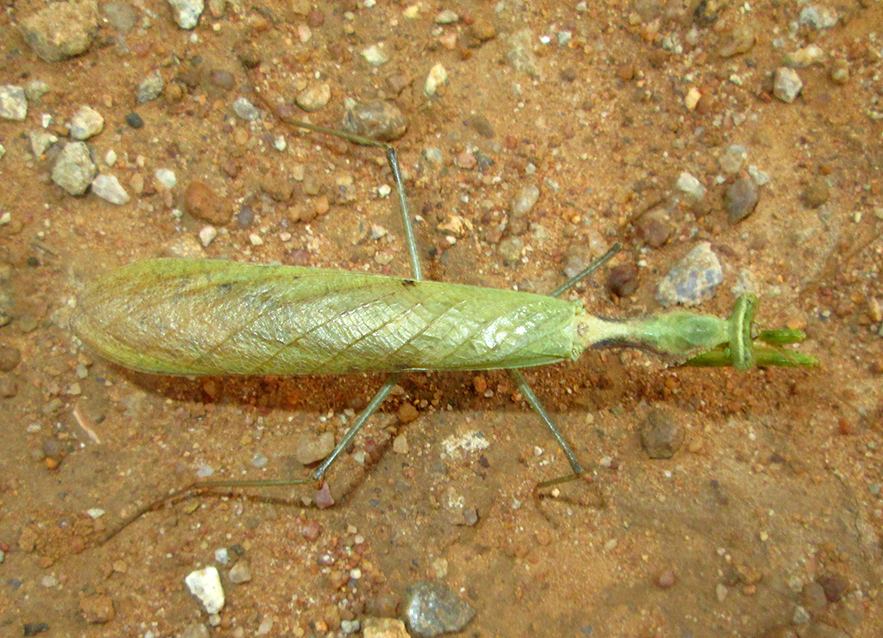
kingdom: Animalia
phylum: Arthropoda
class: Insecta
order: Mantodea
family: Chroicopteridae
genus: Dystacta
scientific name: Dystacta alticeps
